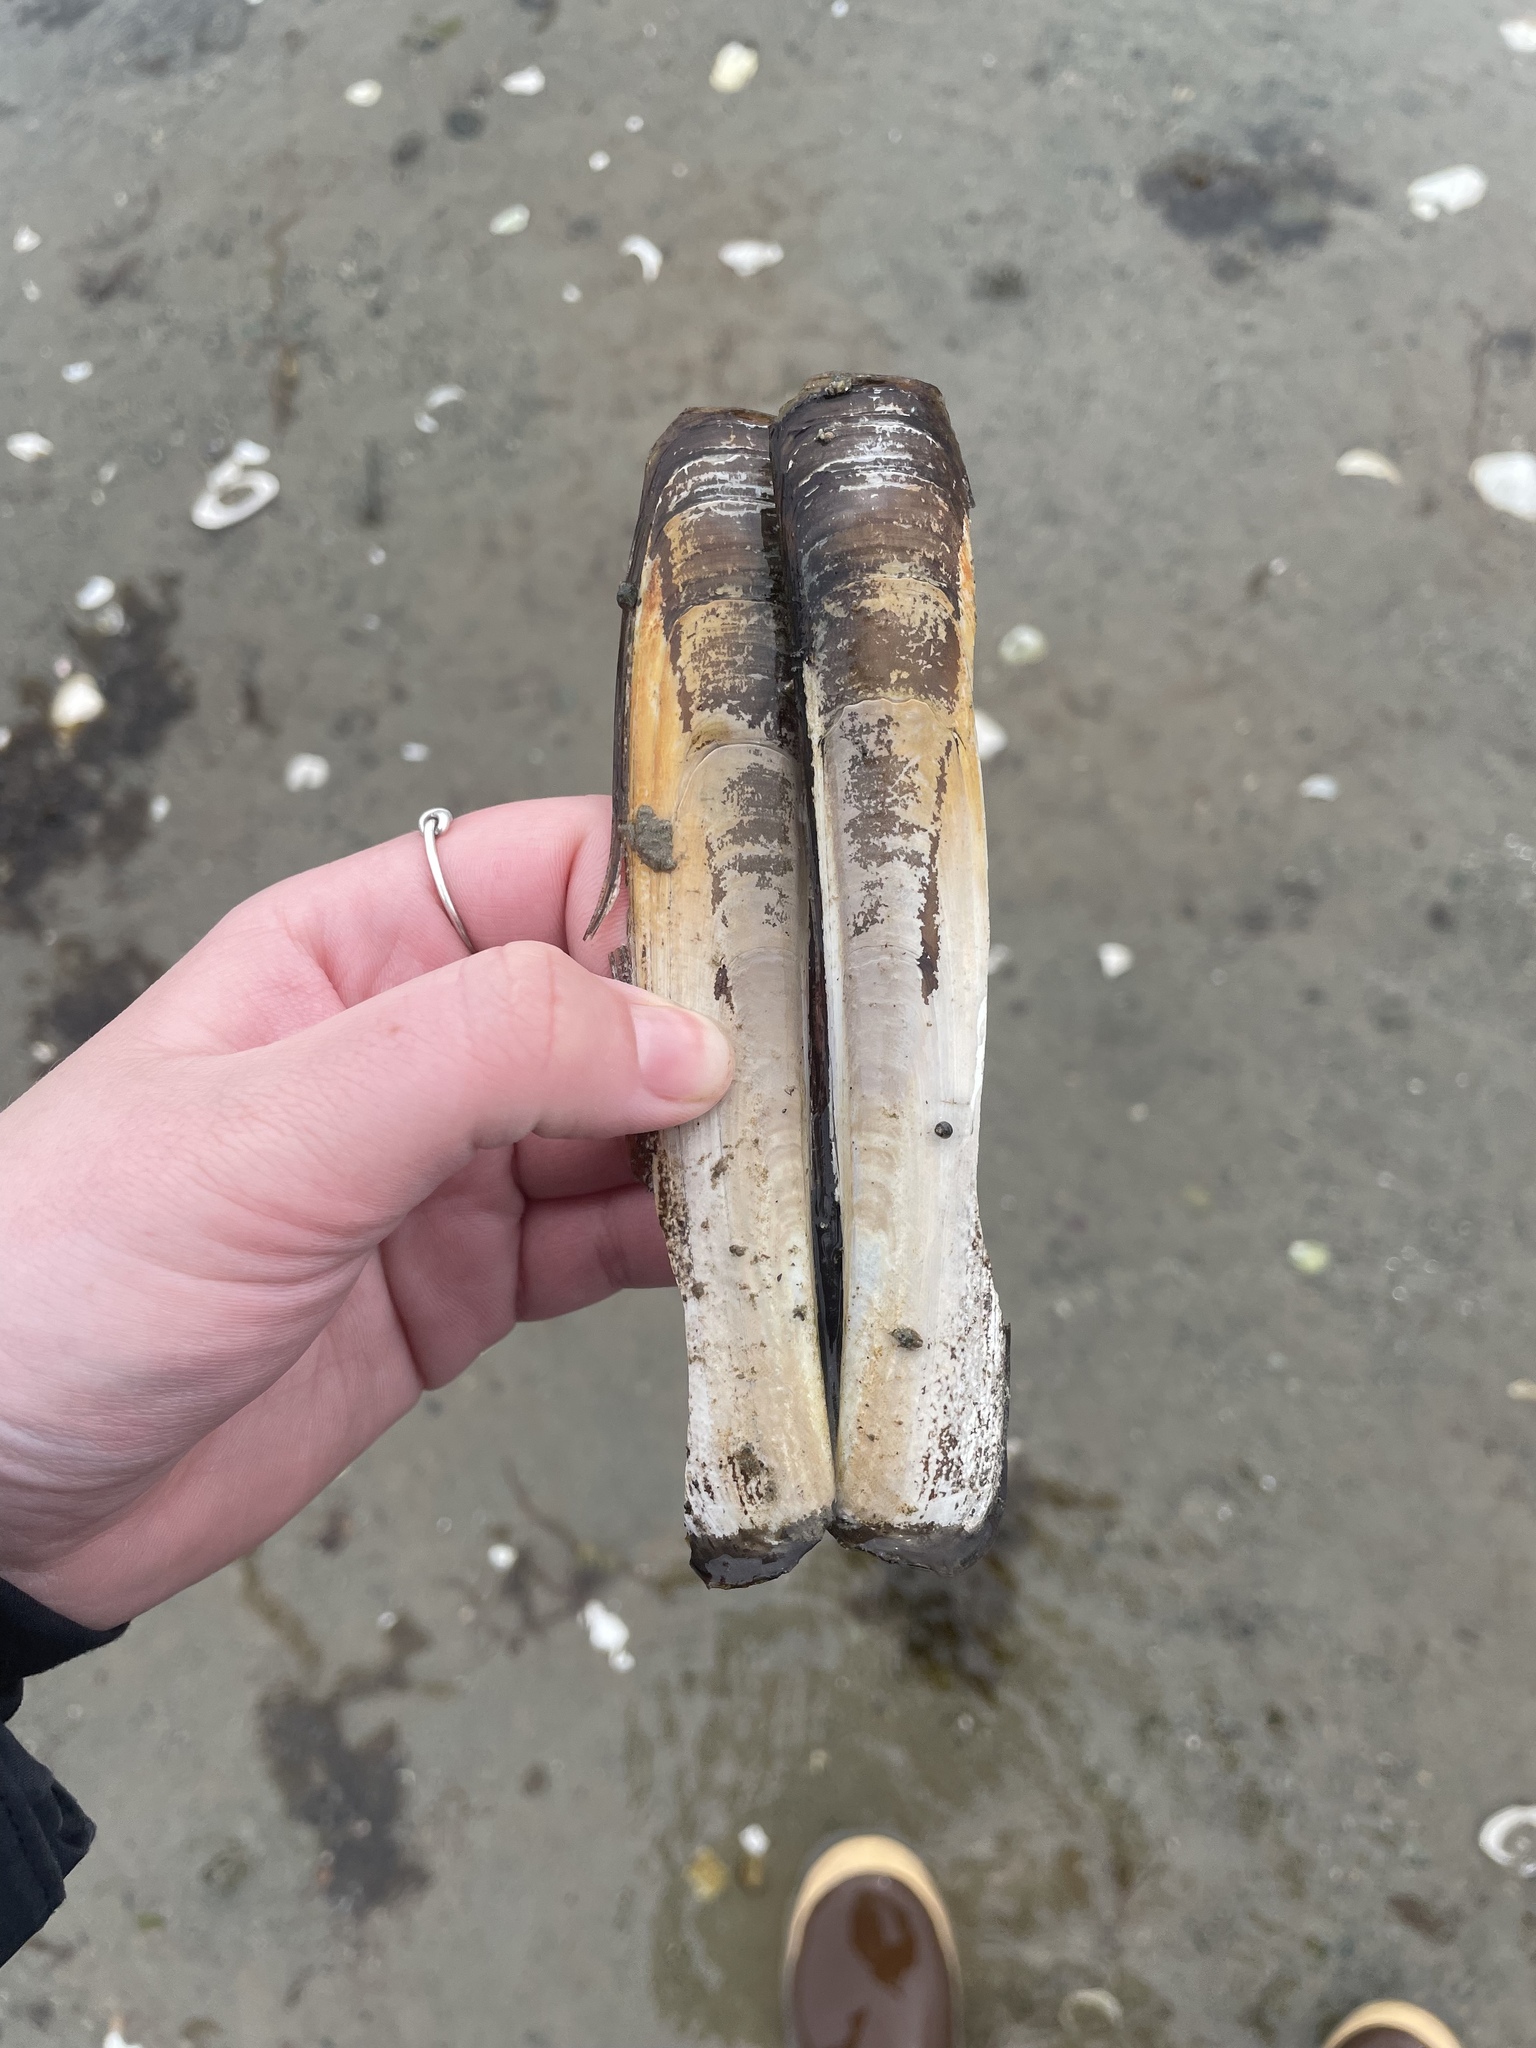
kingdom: Animalia
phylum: Mollusca
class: Bivalvia
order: Adapedonta
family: Pharidae
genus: Ensis
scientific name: Ensis leei
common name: American jack knife clam
